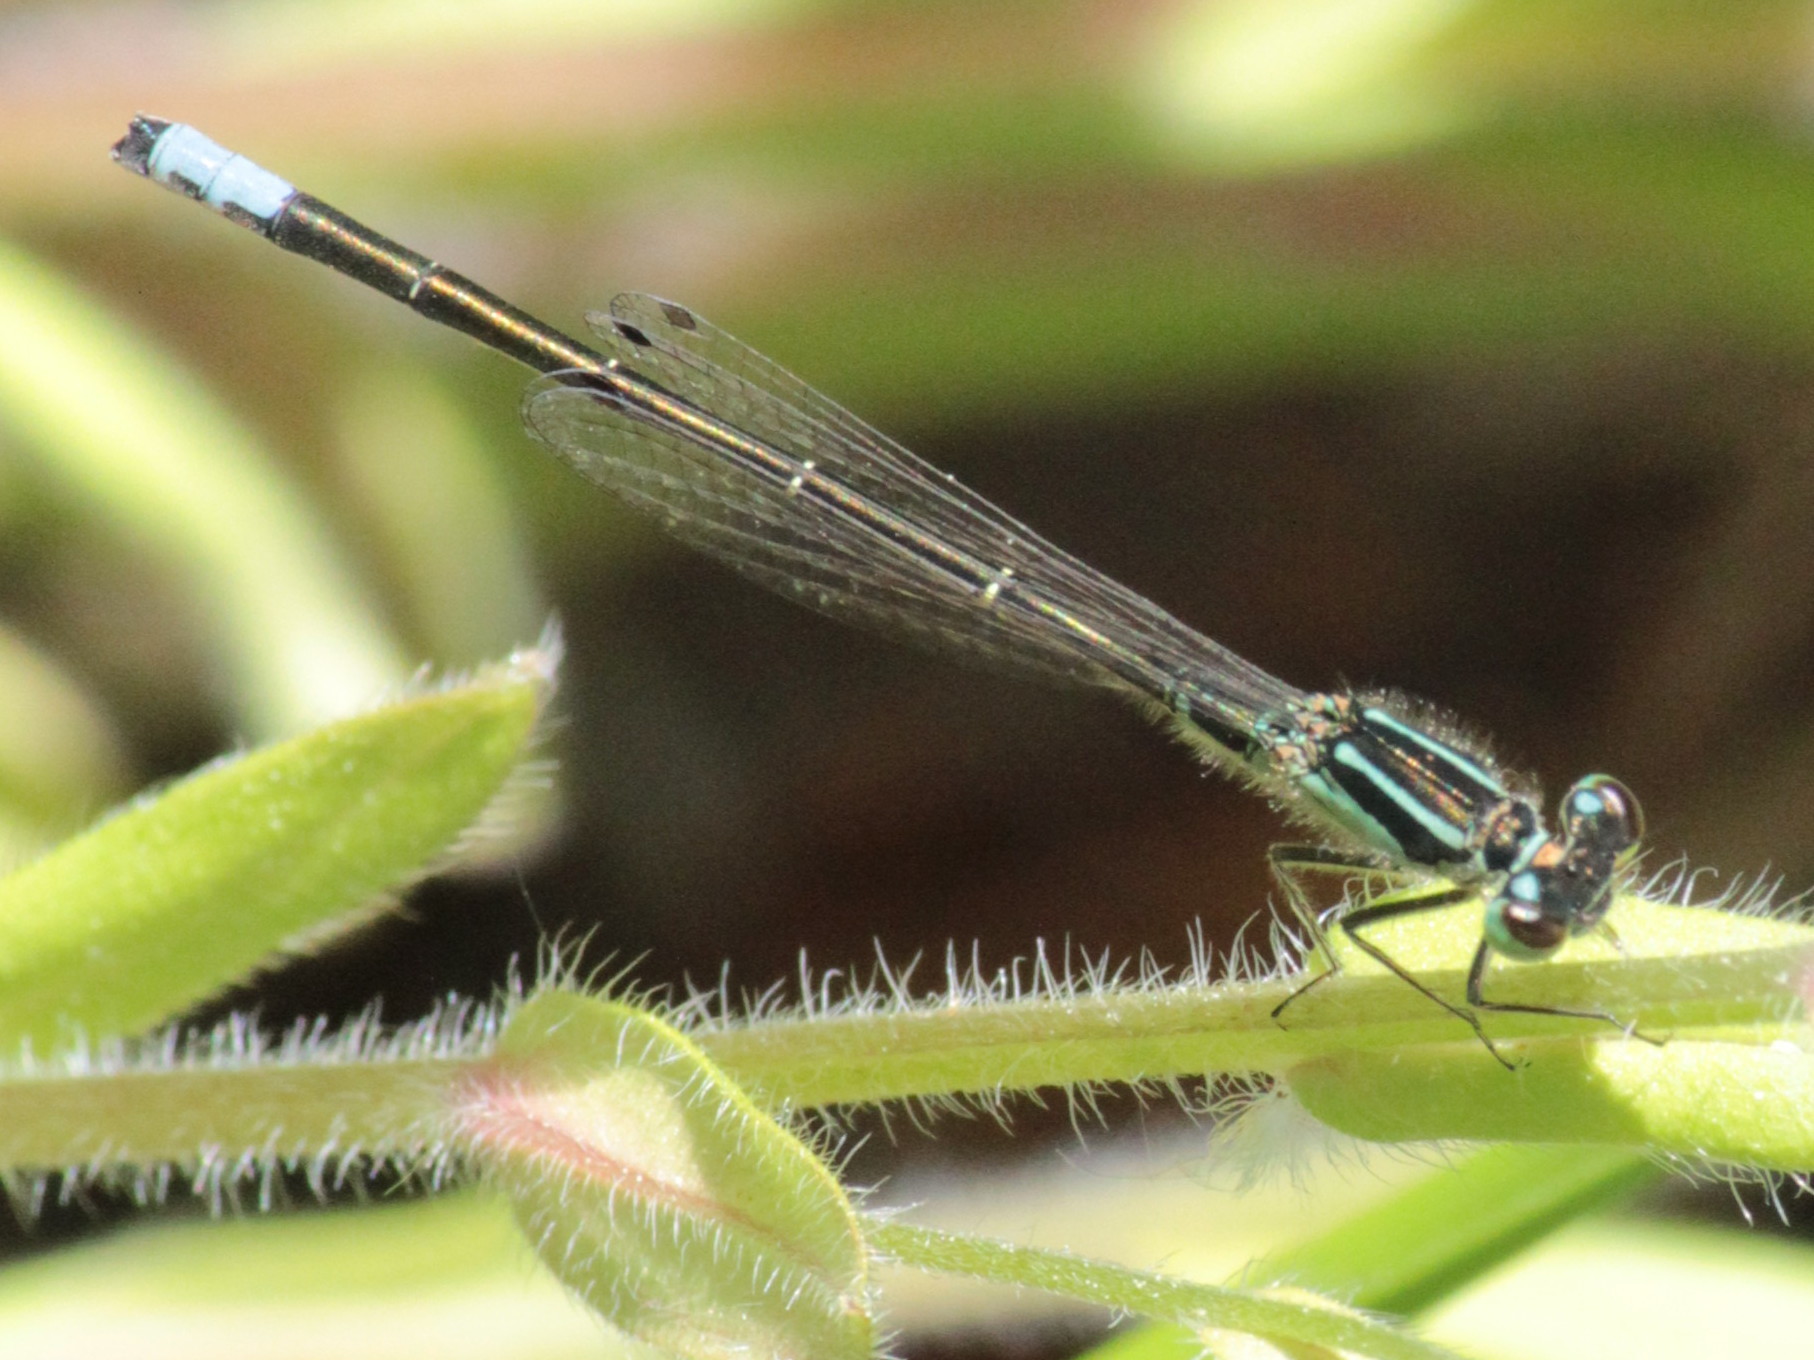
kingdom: Animalia
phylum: Arthropoda
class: Insecta
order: Odonata
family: Coenagrionidae
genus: Ischnura
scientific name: Ischnura verticalis
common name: Eastern forktail
